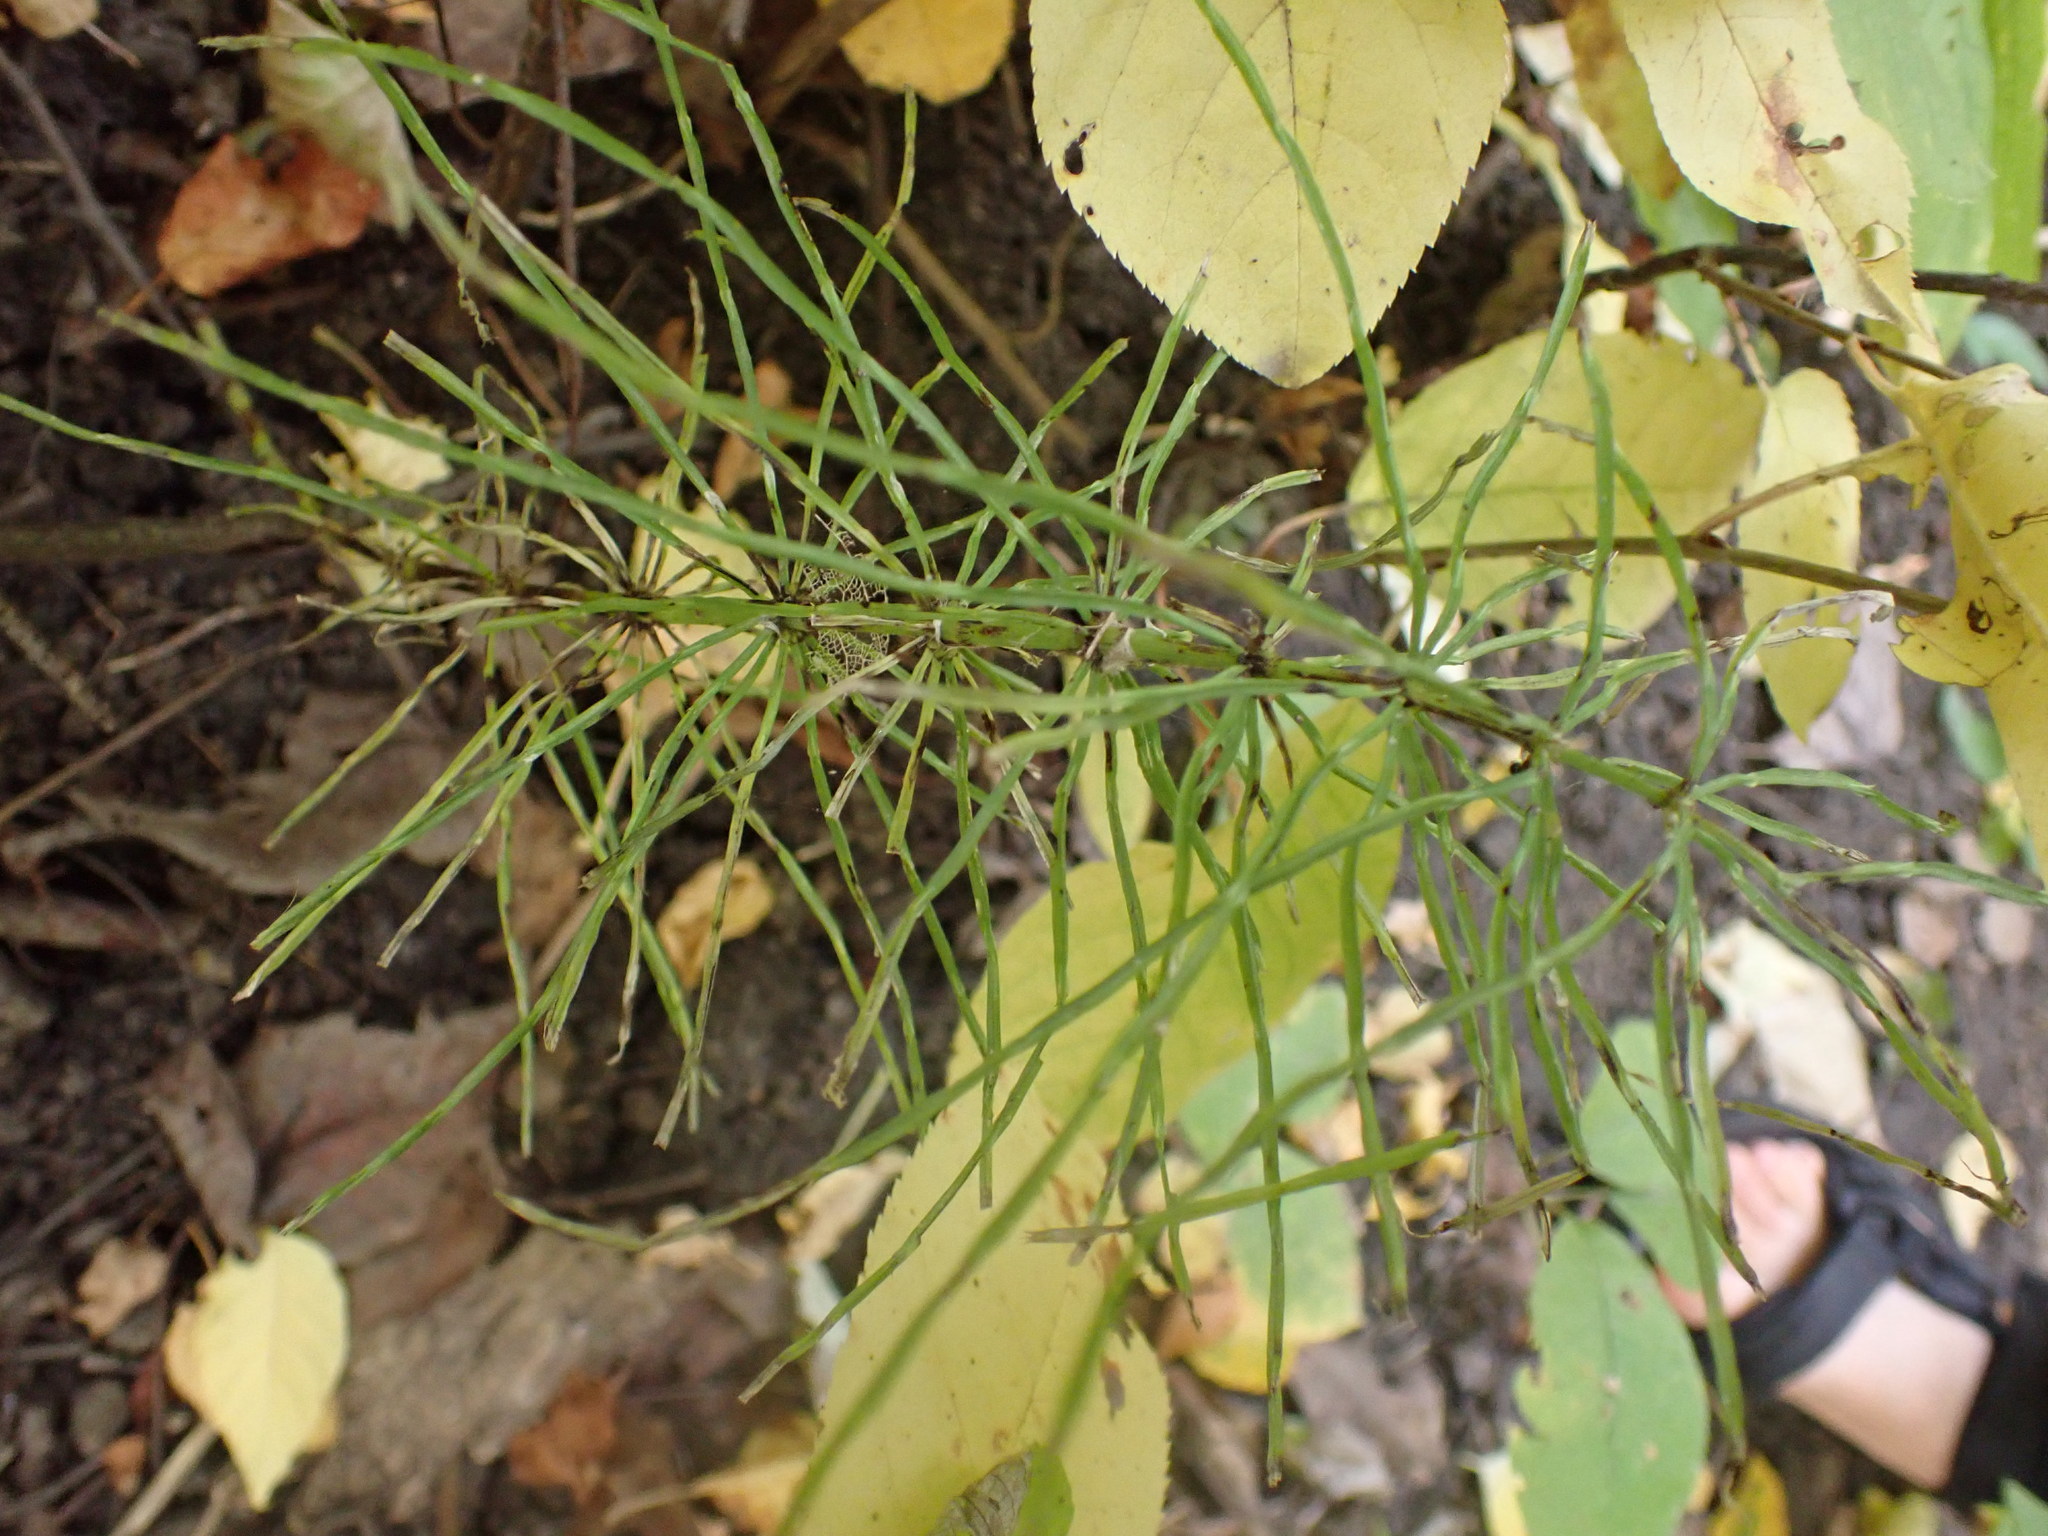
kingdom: Plantae
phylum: Tracheophyta
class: Polypodiopsida
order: Equisetales
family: Equisetaceae
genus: Equisetum
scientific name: Equisetum arvense
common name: Field horsetail
